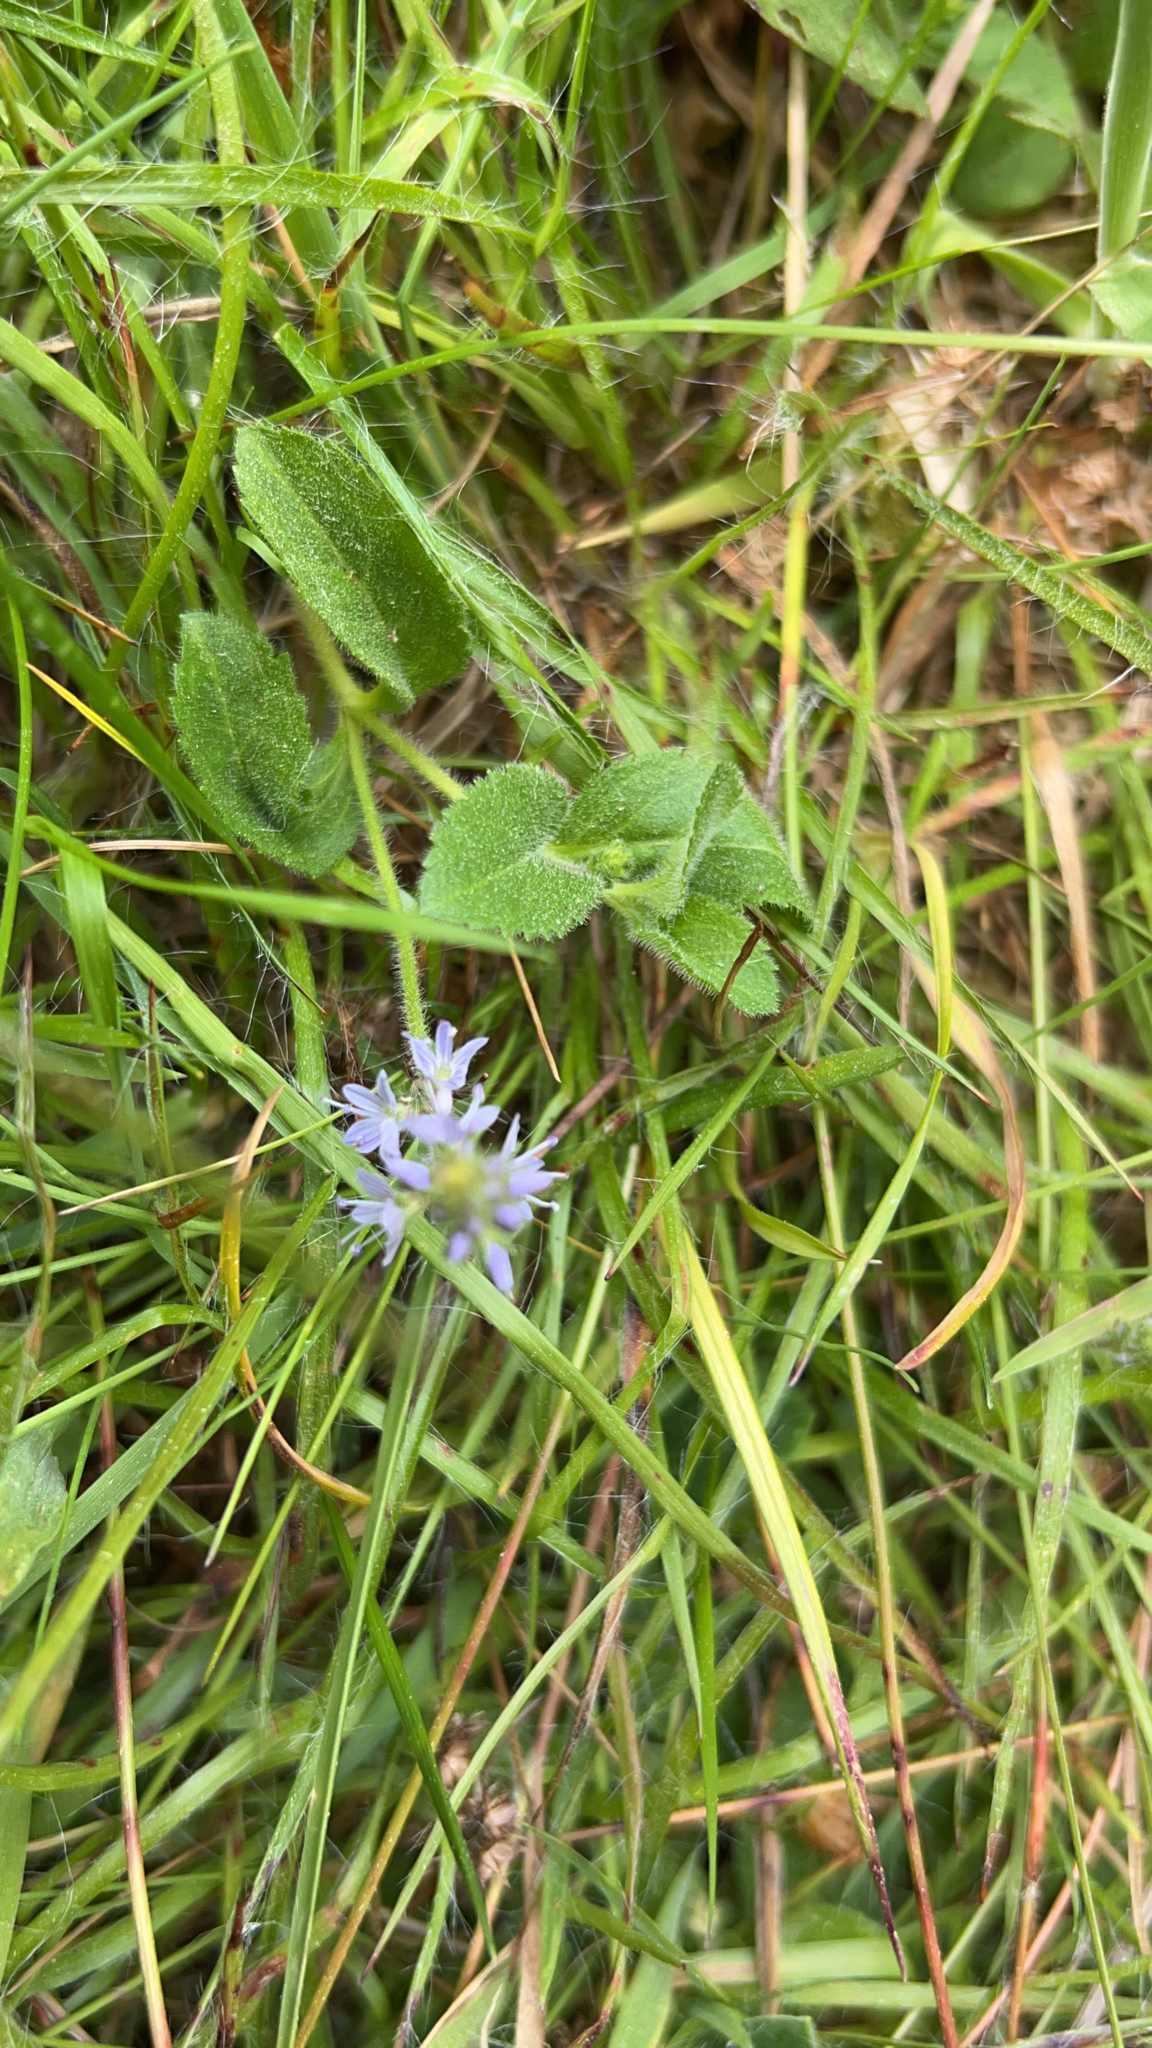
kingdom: Plantae
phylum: Tracheophyta
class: Magnoliopsida
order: Lamiales
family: Plantaginaceae
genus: Veronica
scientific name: Veronica officinalis
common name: Common speedwell
